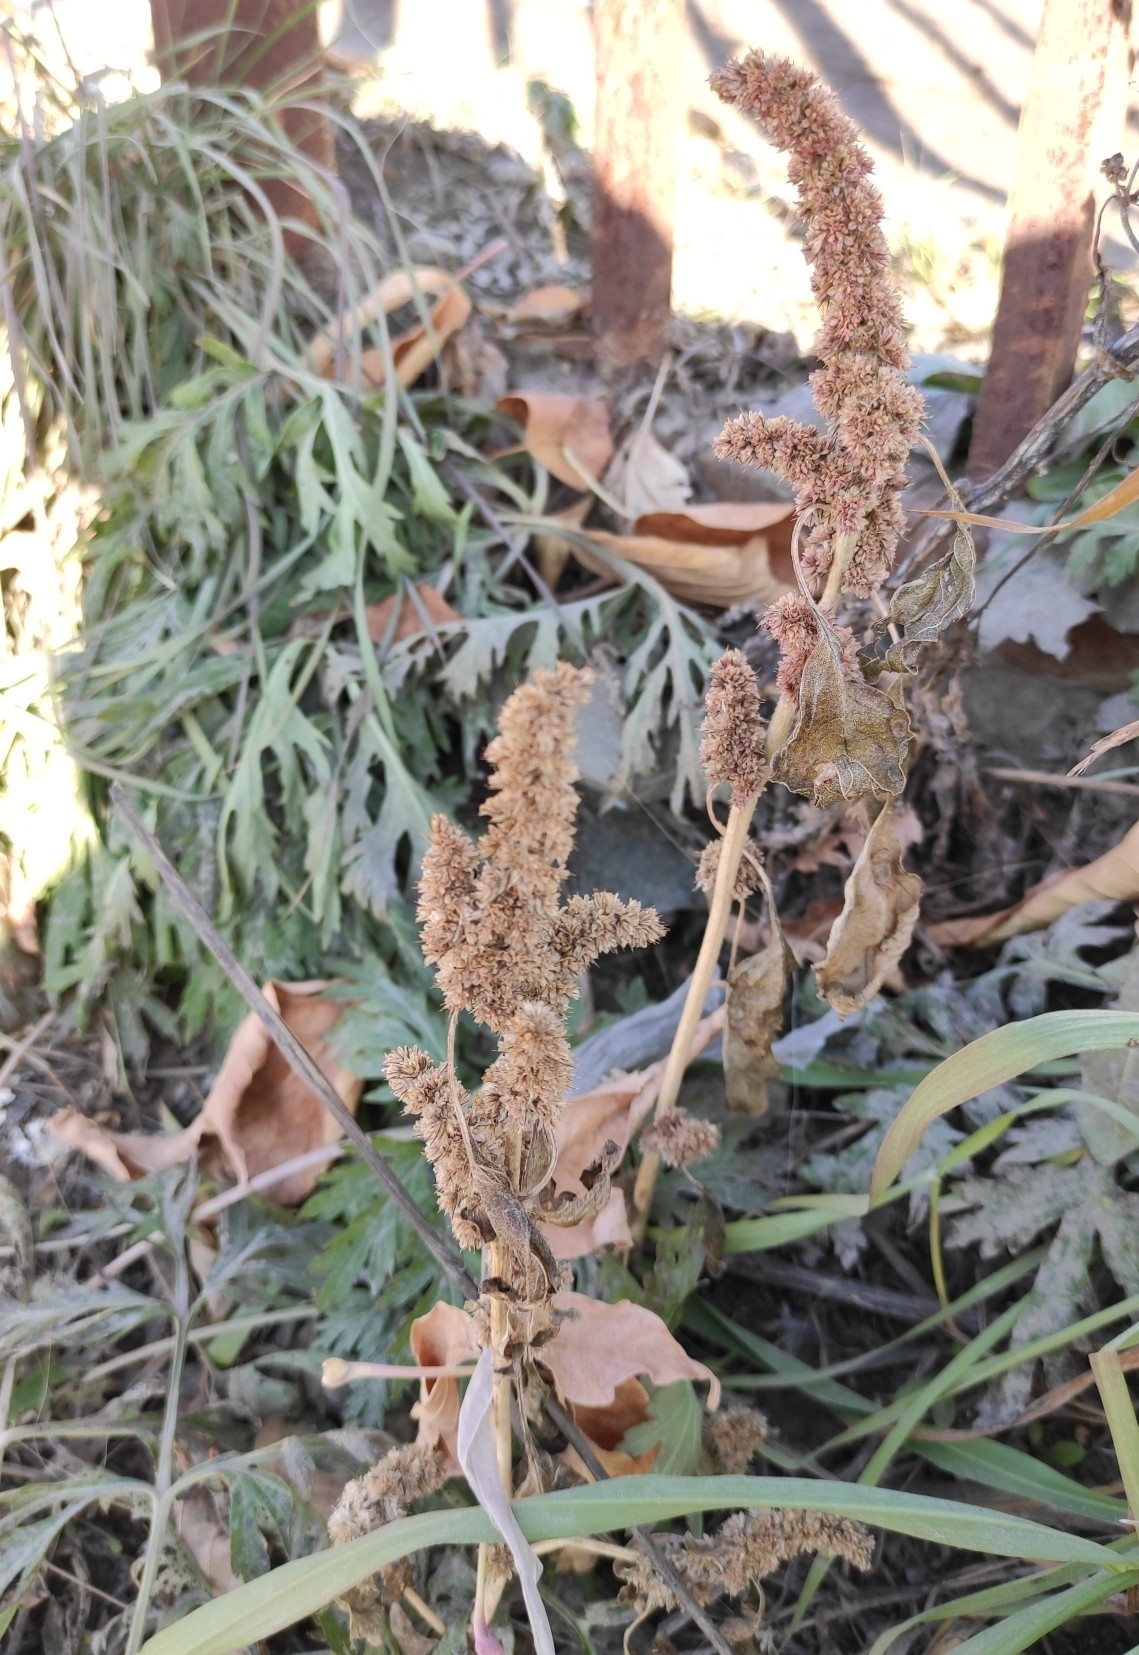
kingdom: Plantae
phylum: Tracheophyta
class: Magnoliopsida
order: Caryophyllales
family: Amaranthaceae
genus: Amaranthus
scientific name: Amaranthus retroflexus
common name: Redroot amaranth
